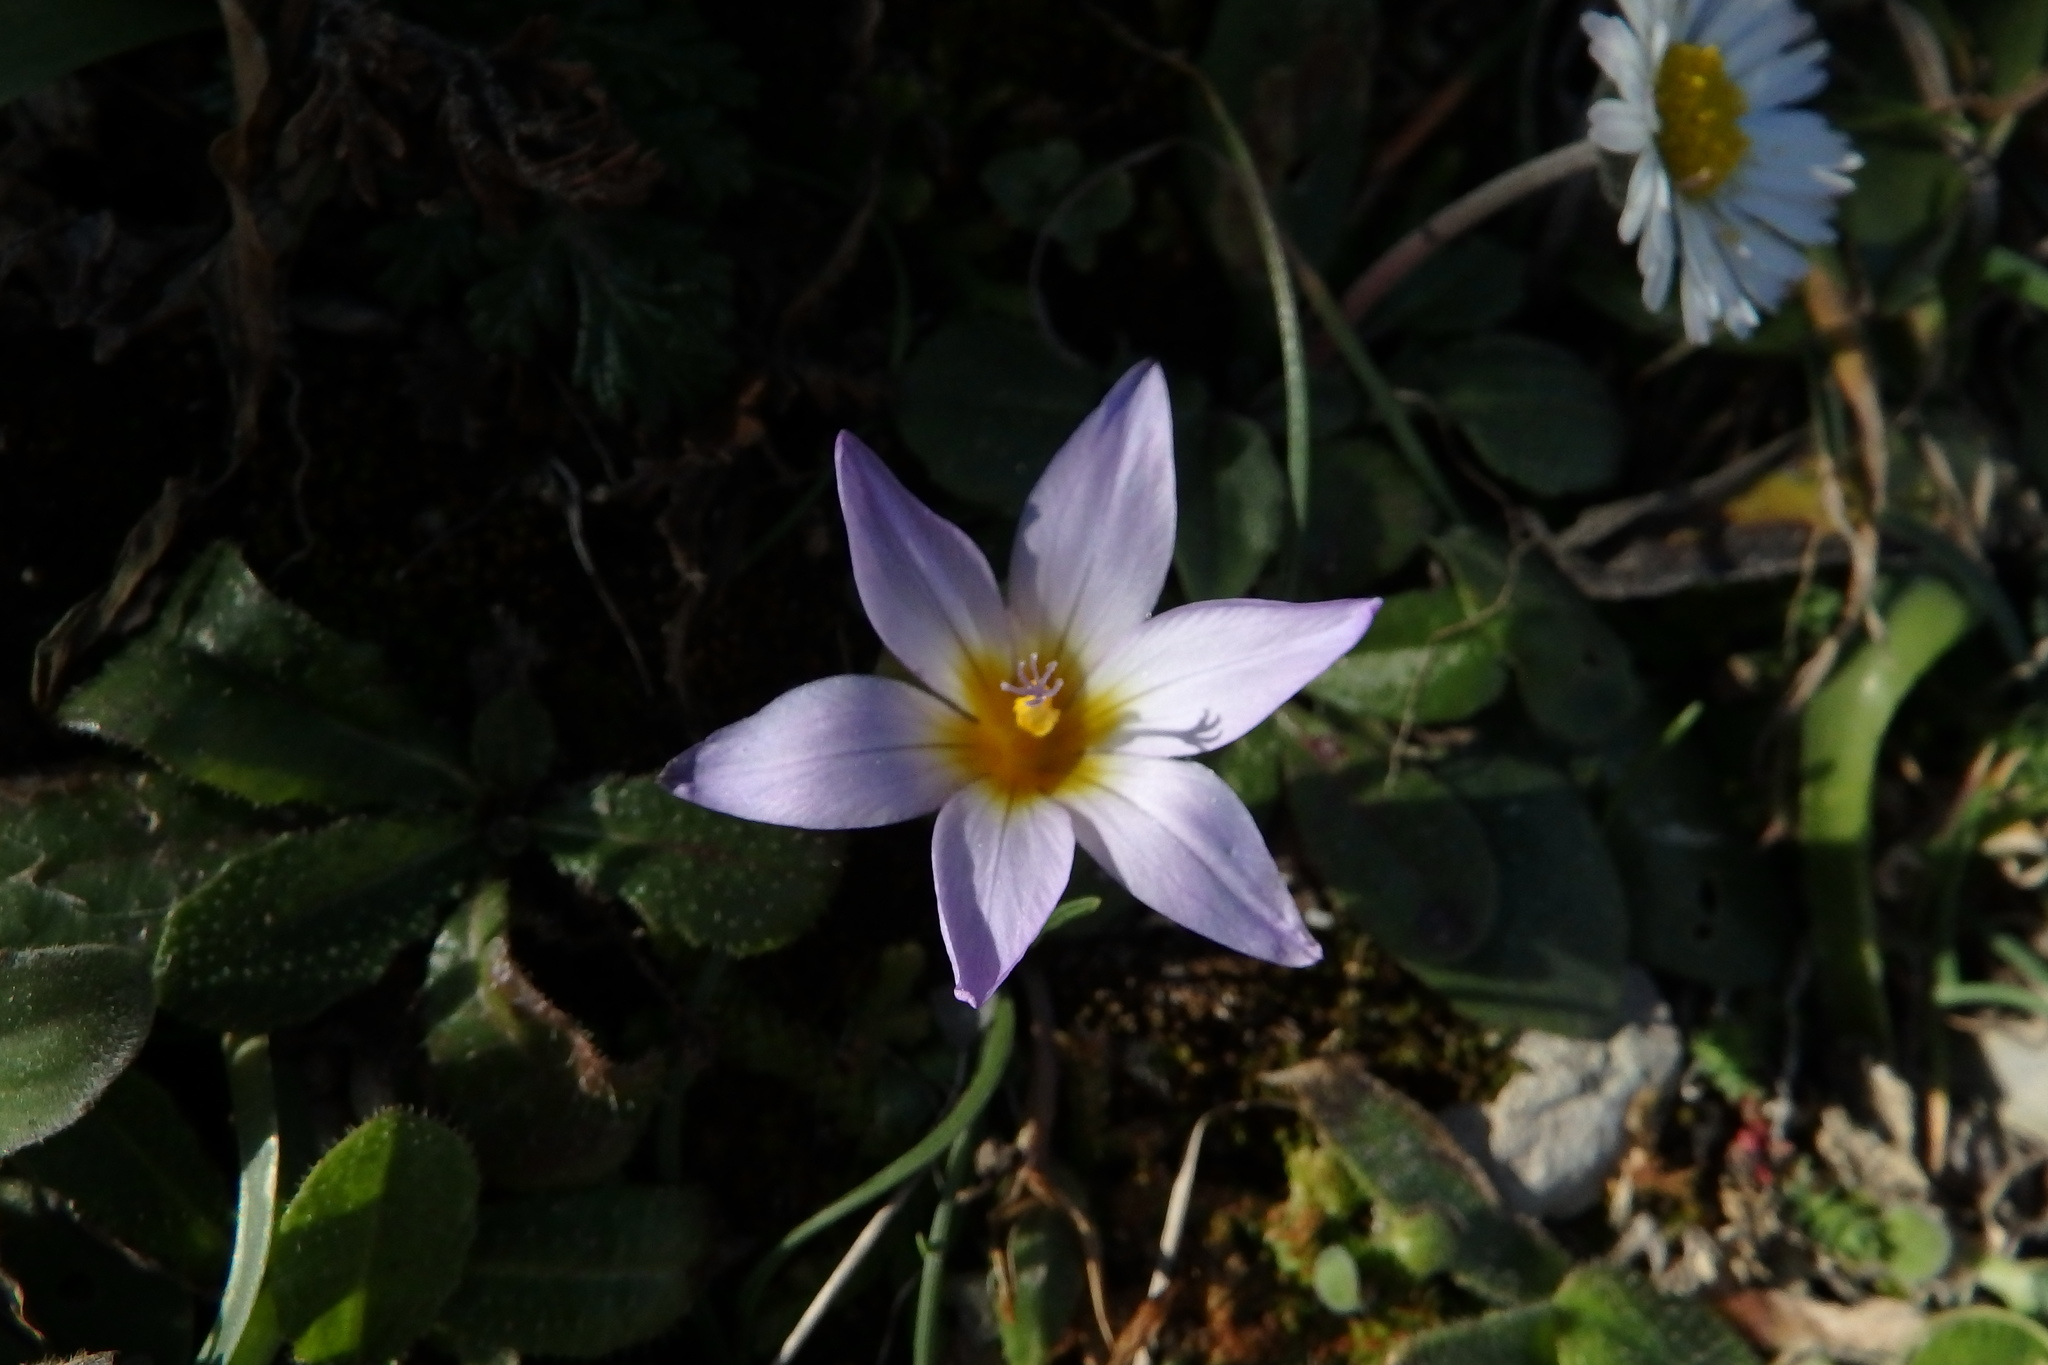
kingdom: Plantae
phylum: Tracheophyta
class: Liliopsida
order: Asparagales
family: Iridaceae
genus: Romulea
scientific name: Romulea bulbocodium
